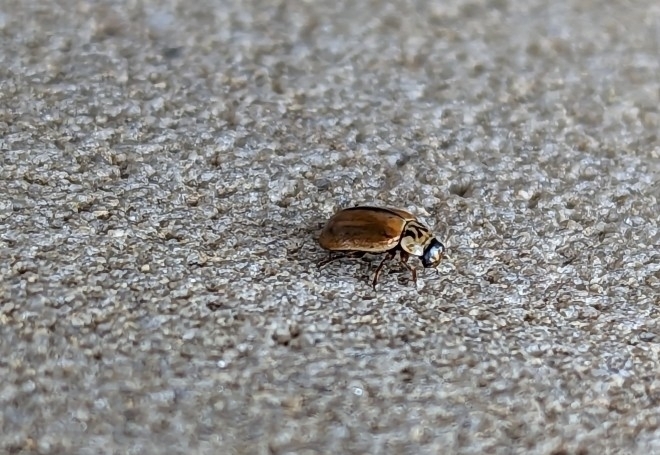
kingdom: Animalia
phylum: Arthropoda
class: Insecta
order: Coleoptera
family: Coccinellidae
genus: Aphidecta
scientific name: Aphidecta obliterata
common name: Larch ladybird
